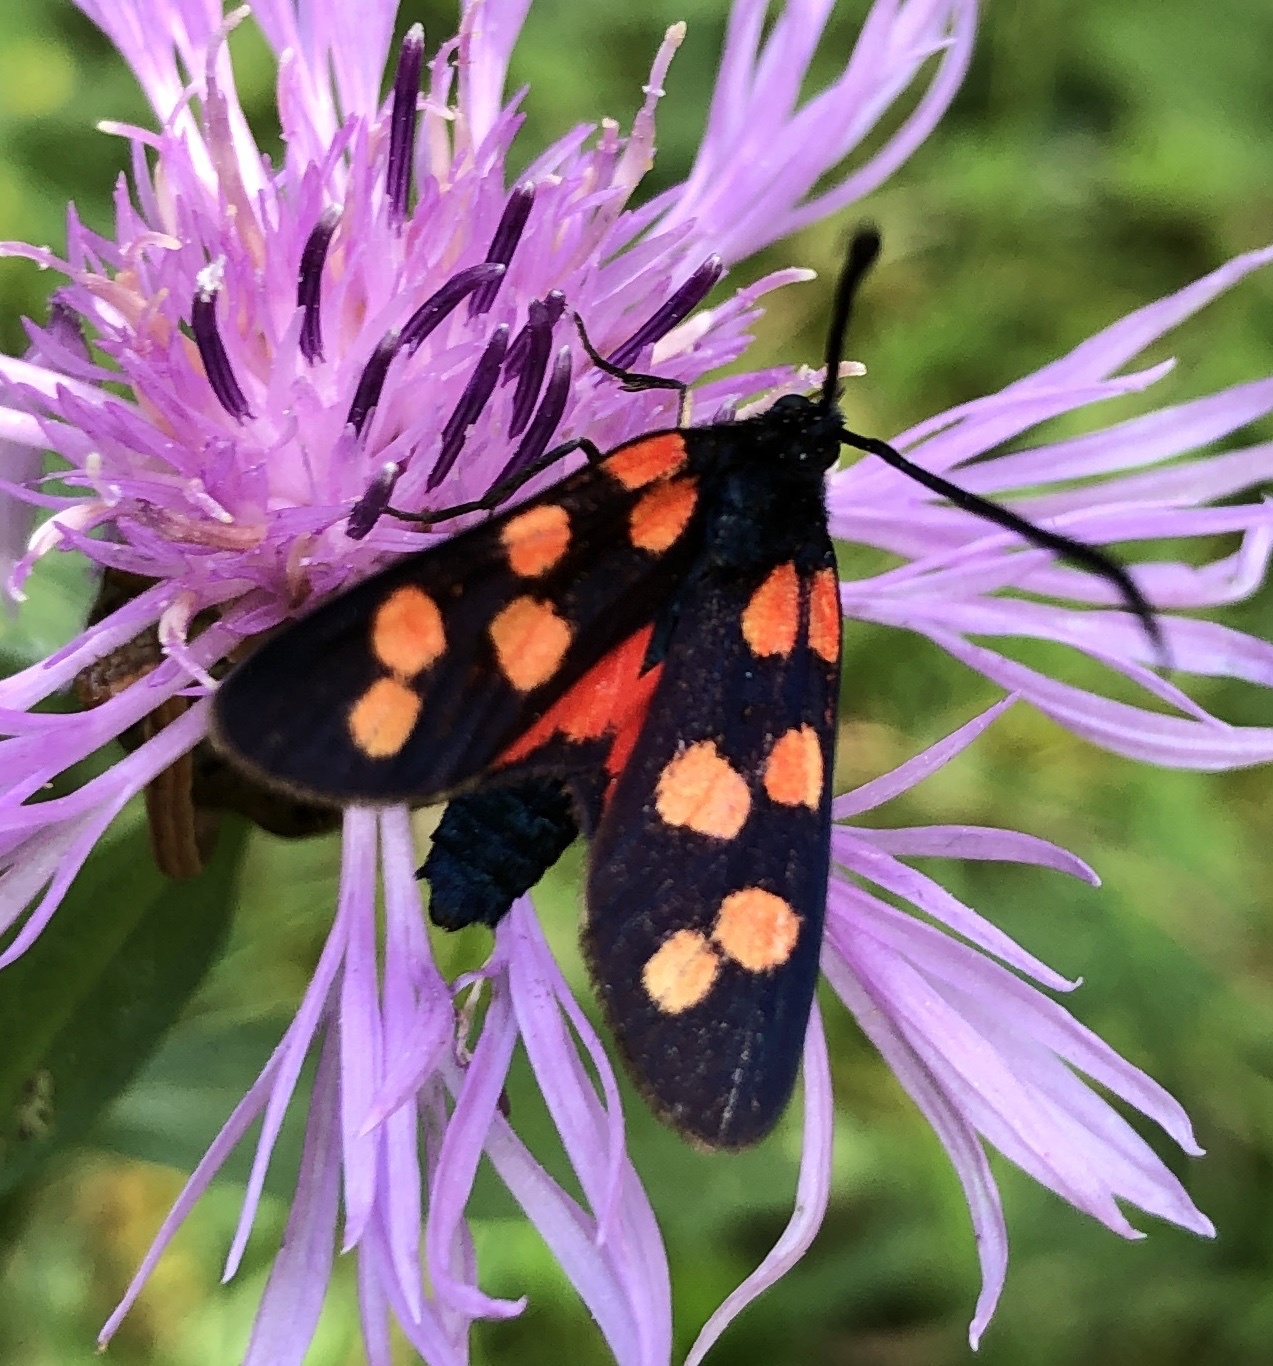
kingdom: Animalia
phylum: Arthropoda
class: Insecta
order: Lepidoptera
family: Zygaenidae
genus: Zygaena
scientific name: Zygaena transalpina
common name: Southern six spot burnet
